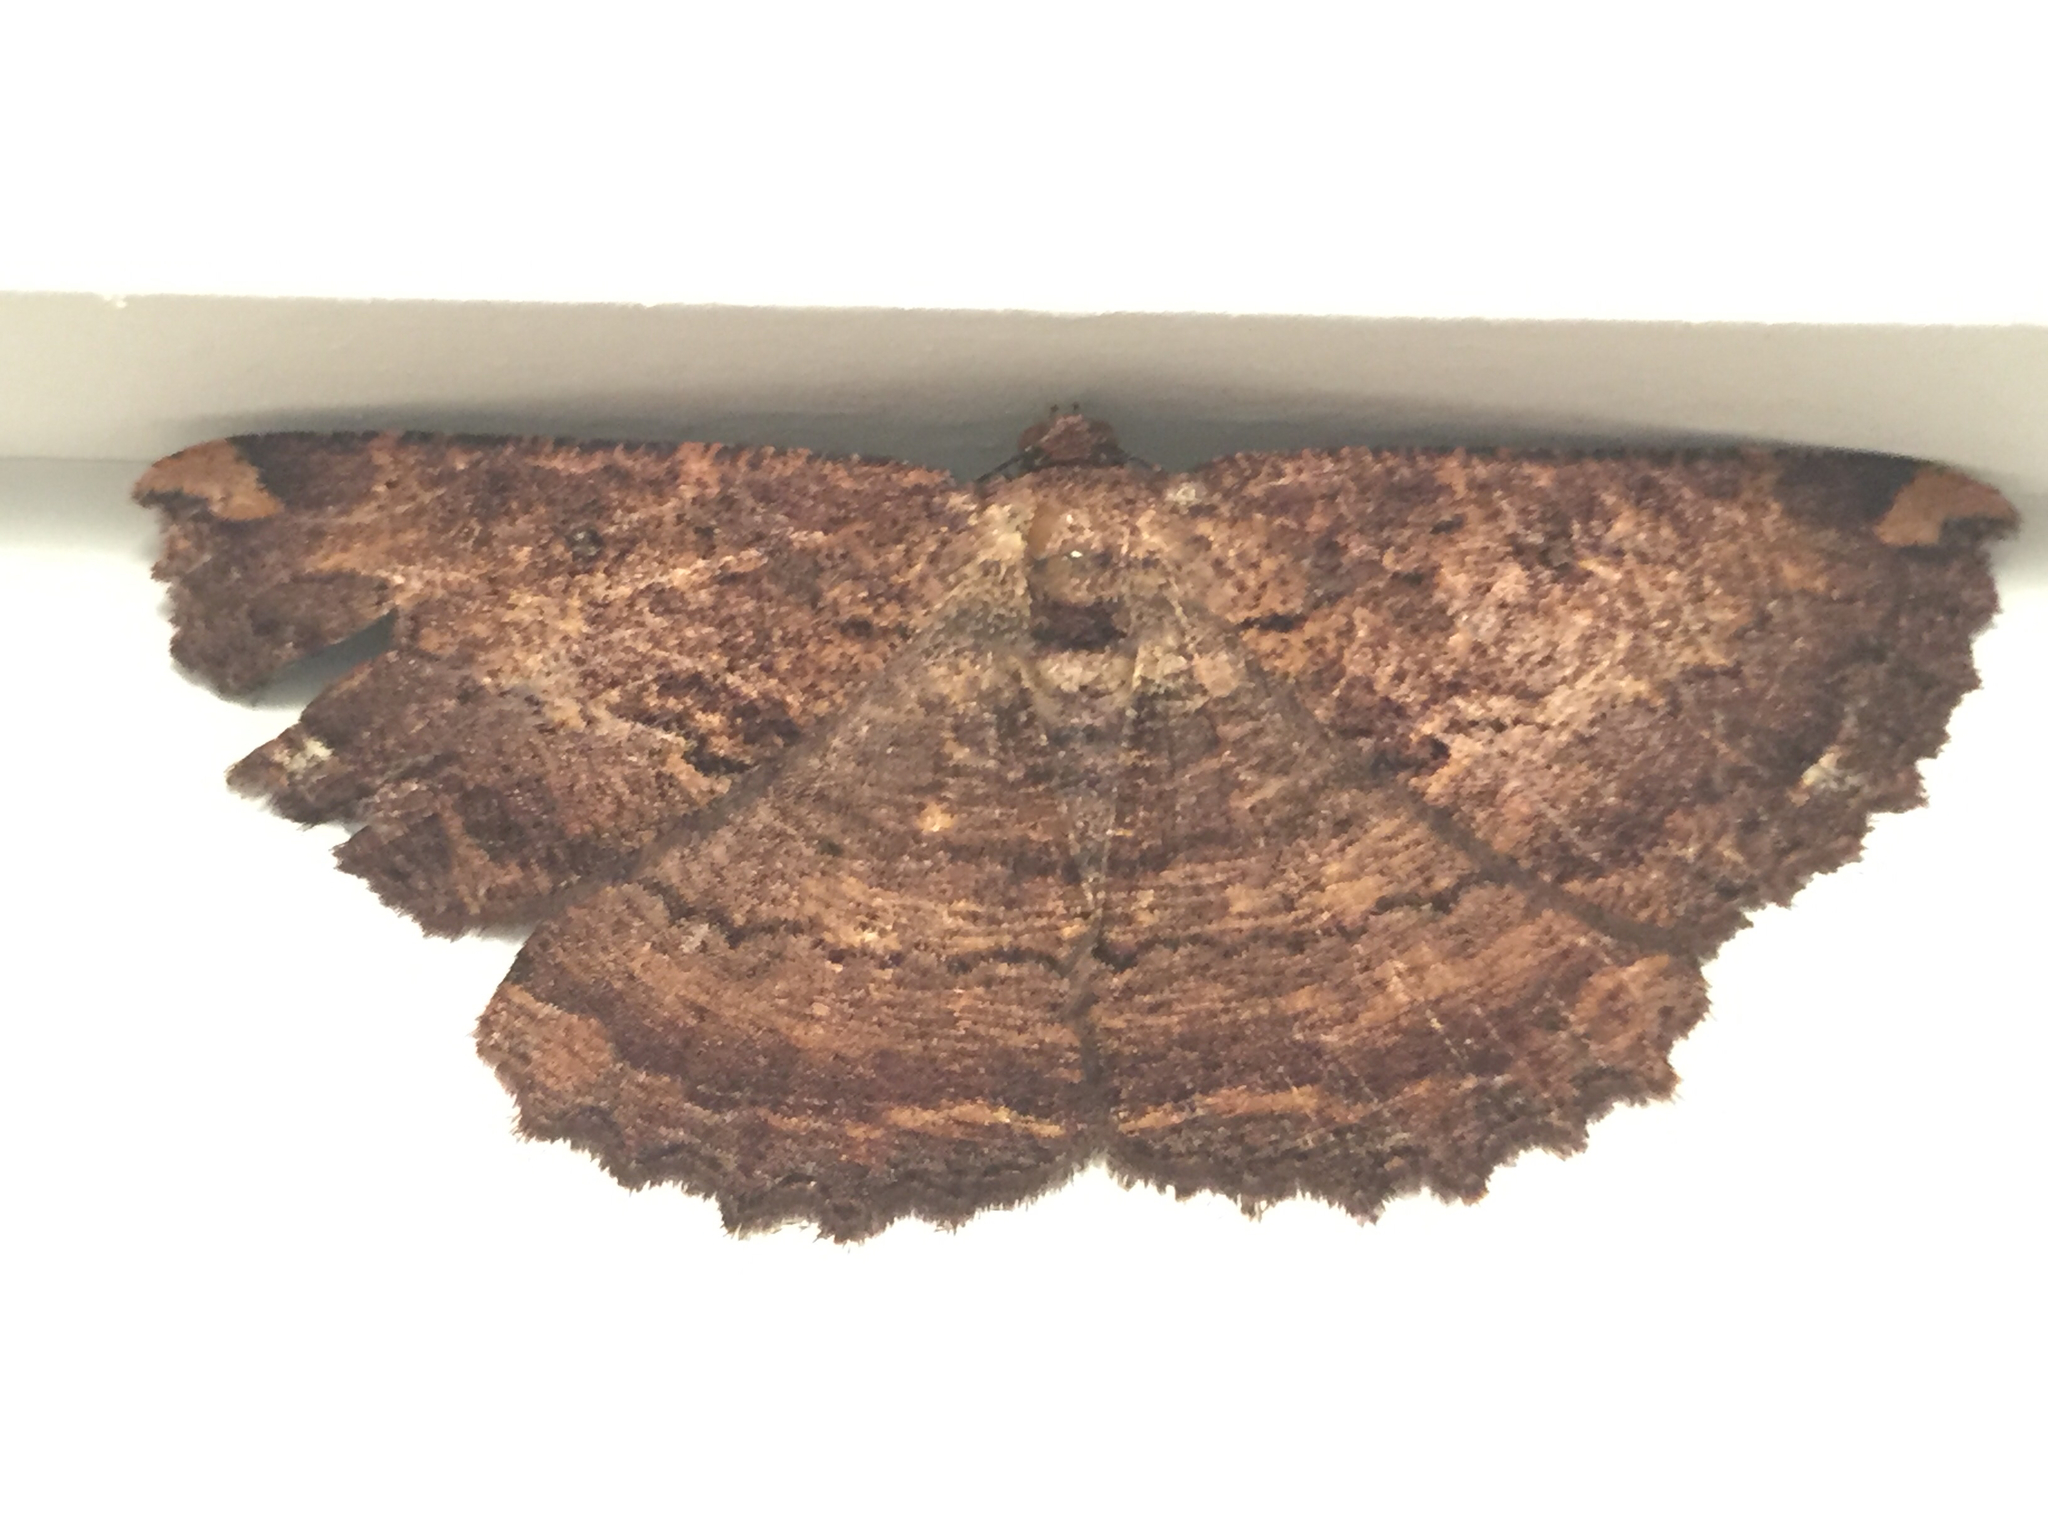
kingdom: Animalia
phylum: Arthropoda
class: Insecta
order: Lepidoptera
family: Geometridae
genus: Gellonia
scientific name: Gellonia dejectaria
